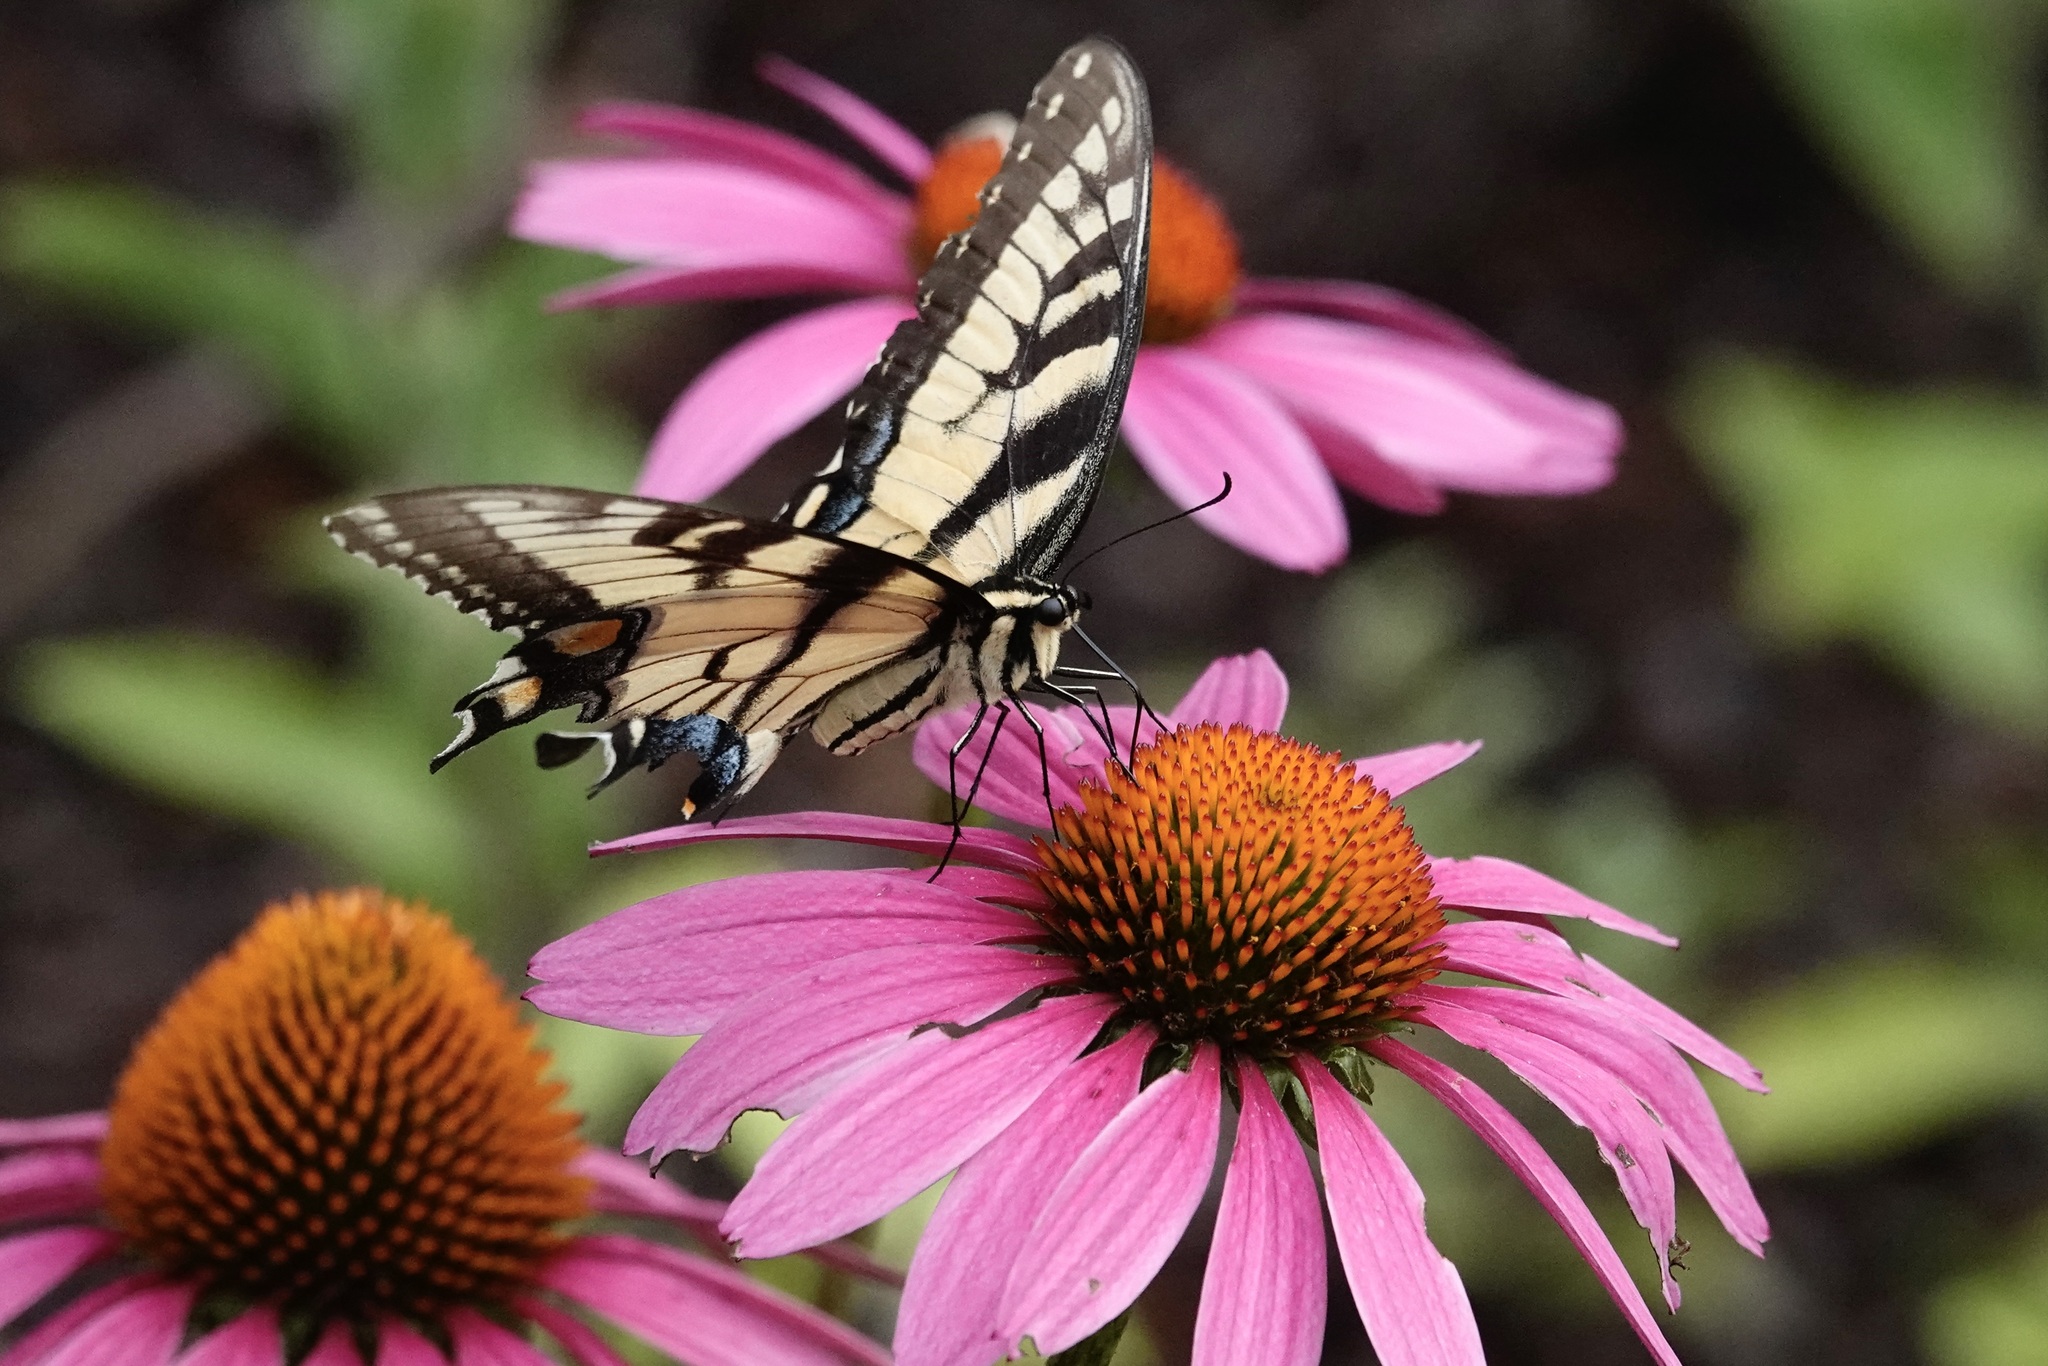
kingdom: Animalia
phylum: Arthropoda
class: Insecta
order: Lepidoptera
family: Papilionidae
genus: Papilio
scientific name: Papilio glaucus
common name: Tiger swallowtail
